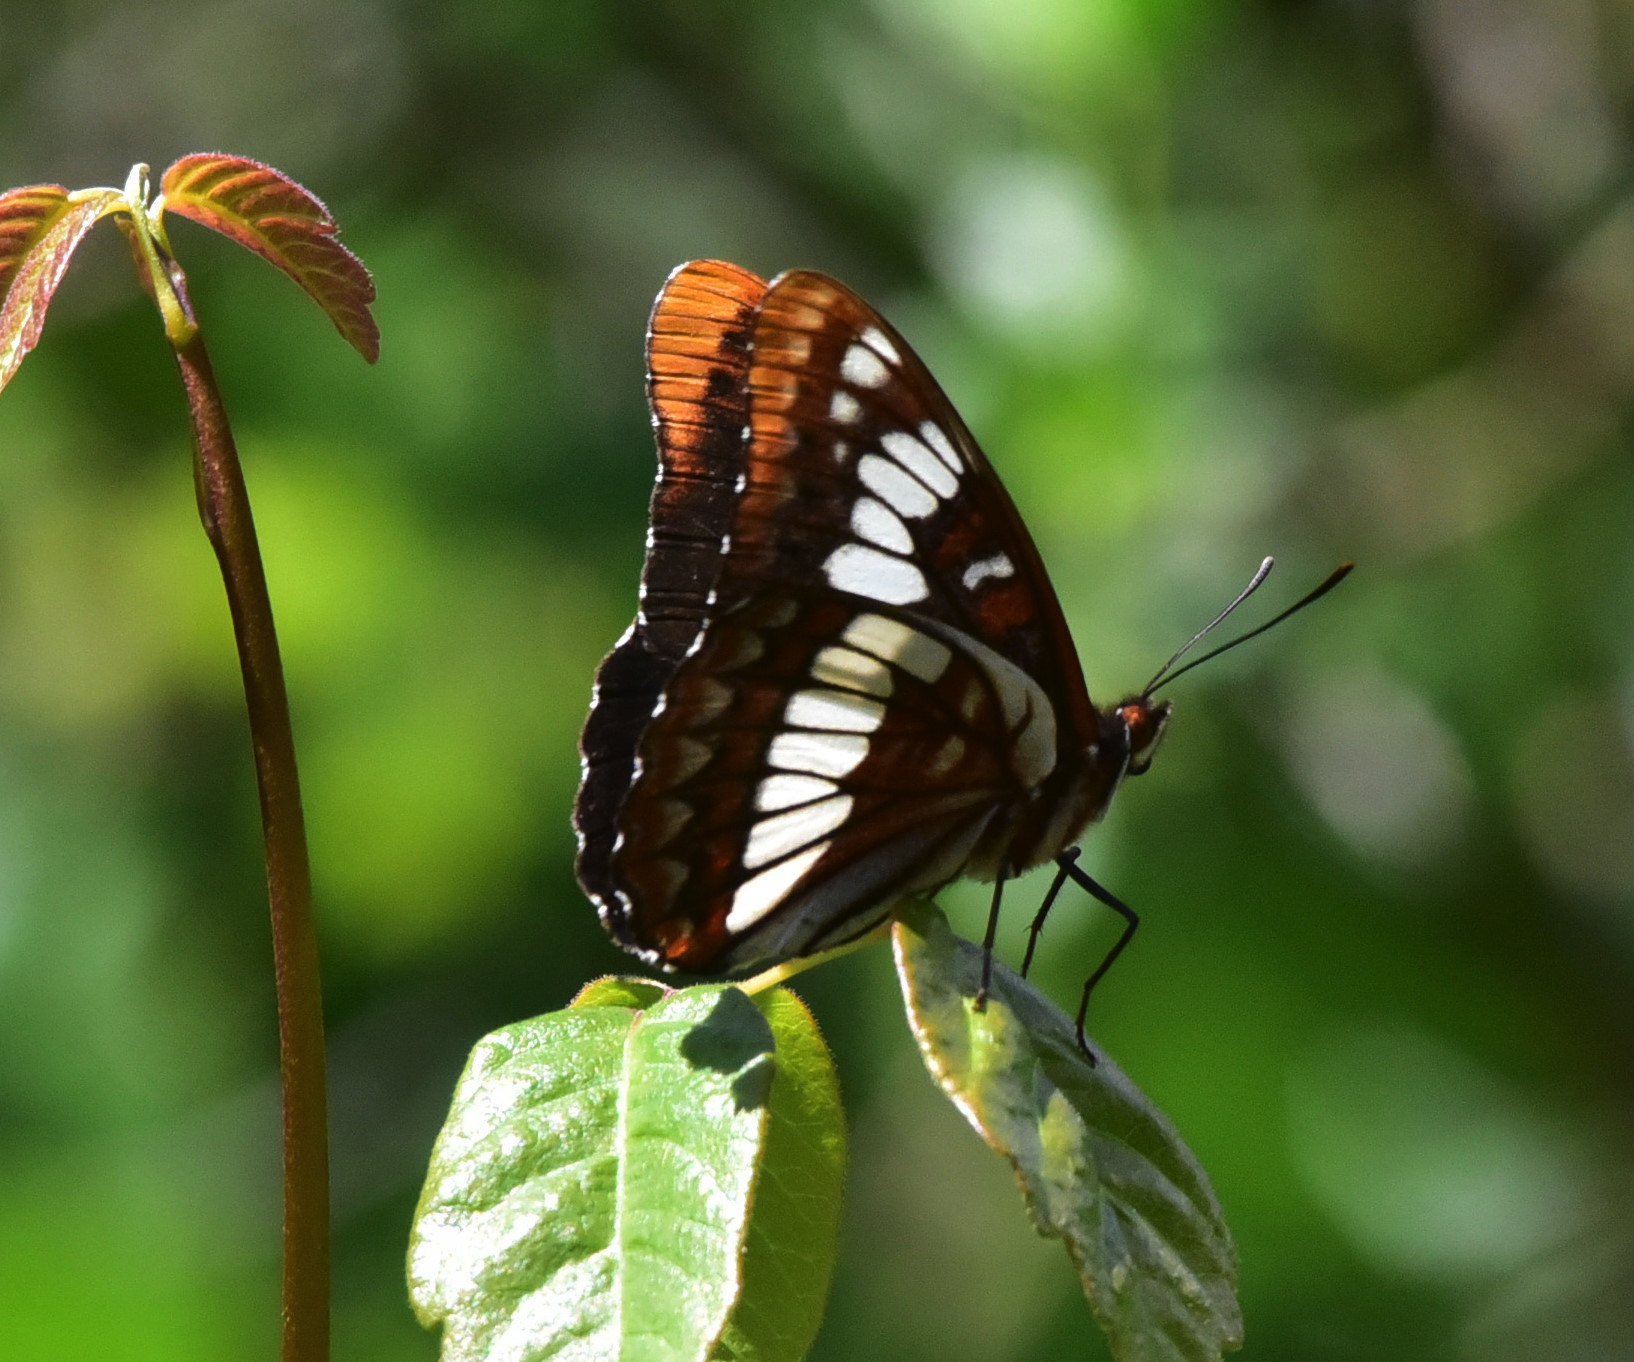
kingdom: Animalia
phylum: Arthropoda
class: Insecta
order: Lepidoptera
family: Nymphalidae
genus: Limenitis
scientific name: Limenitis lorquini
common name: Lorquin's admiral
